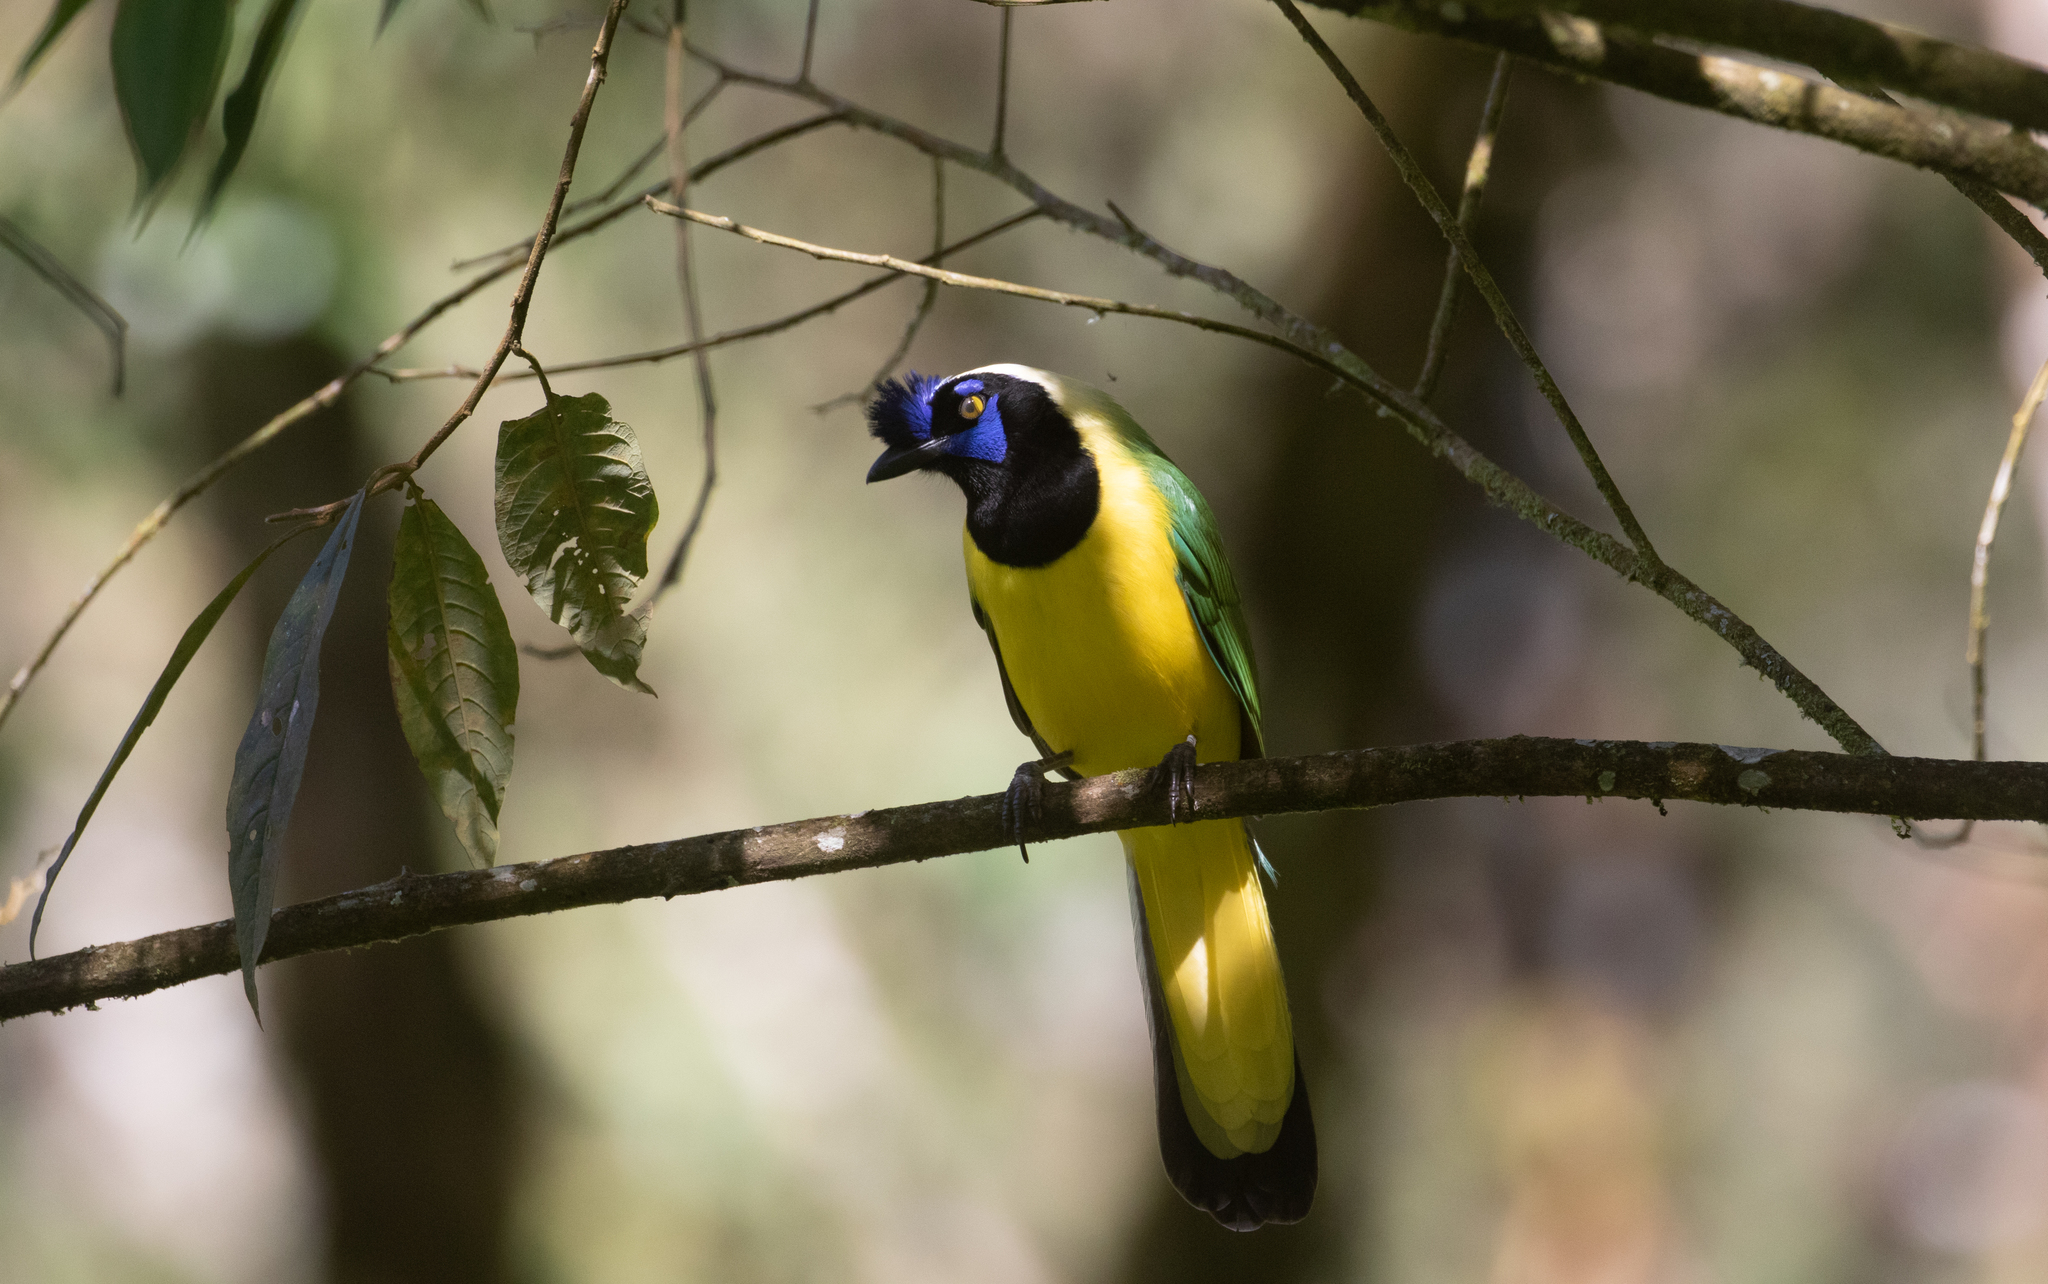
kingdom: Animalia
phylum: Chordata
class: Aves
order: Passeriformes
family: Corvidae
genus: Cyanocorax
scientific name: Cyanocorax yncas
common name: Green jay
